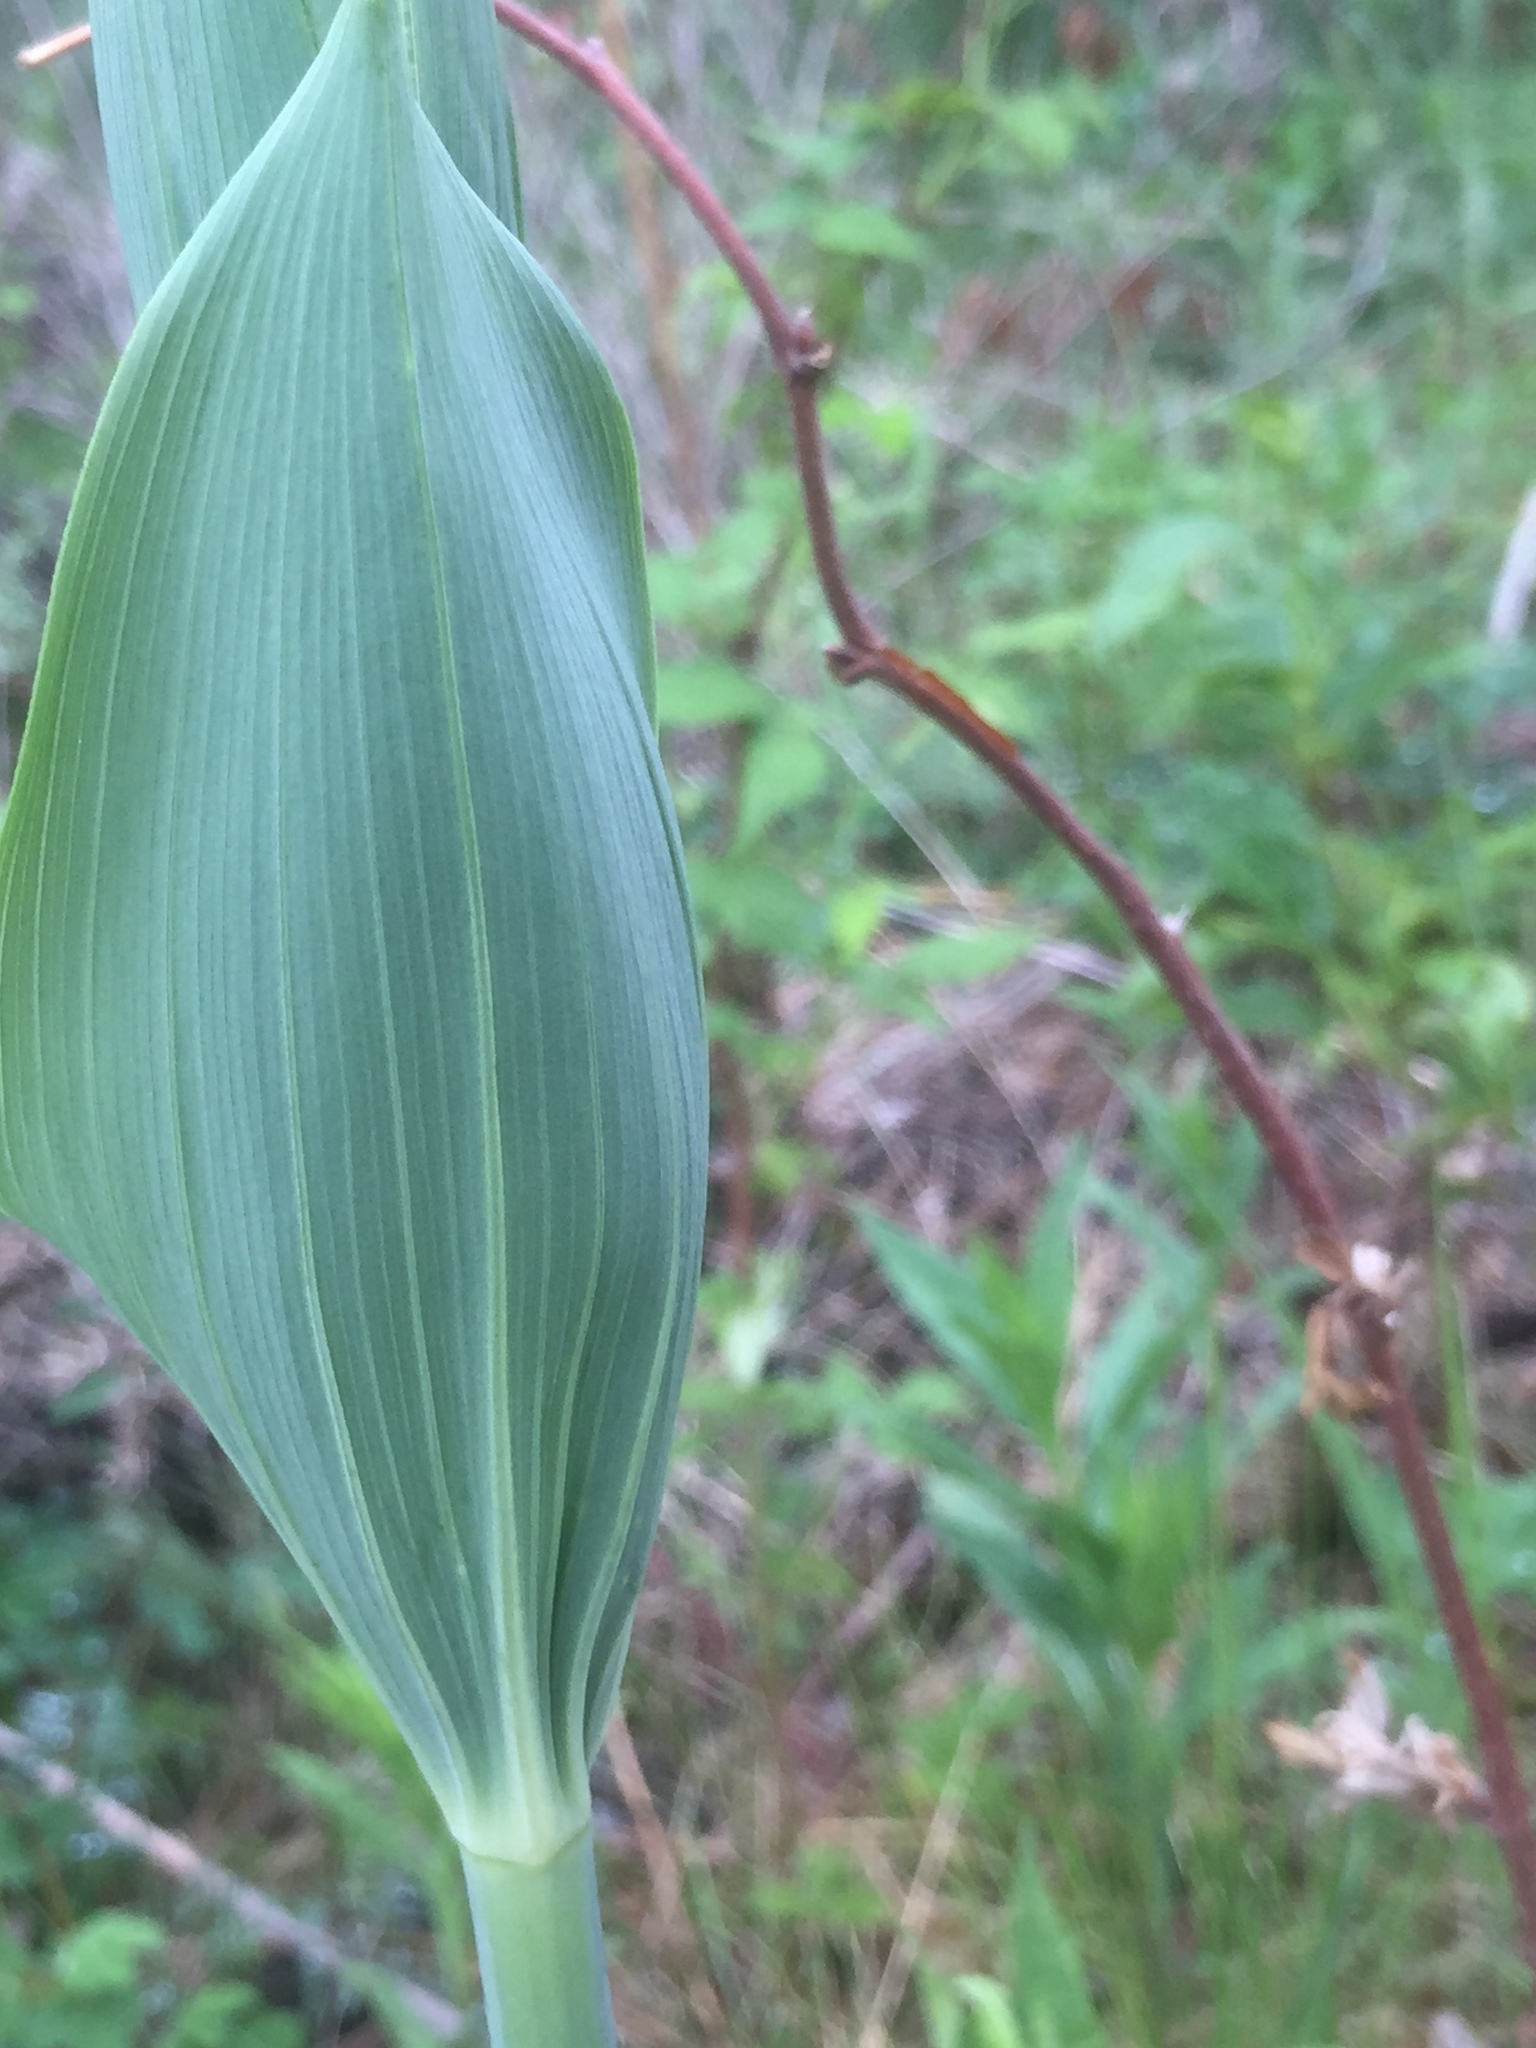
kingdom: Plantae
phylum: Tracheophyta
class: Liliopsida
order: Asparagales
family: Asparagaceae
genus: Polygonatum
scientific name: Polygonatum biflorum
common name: American solomon's-seal
